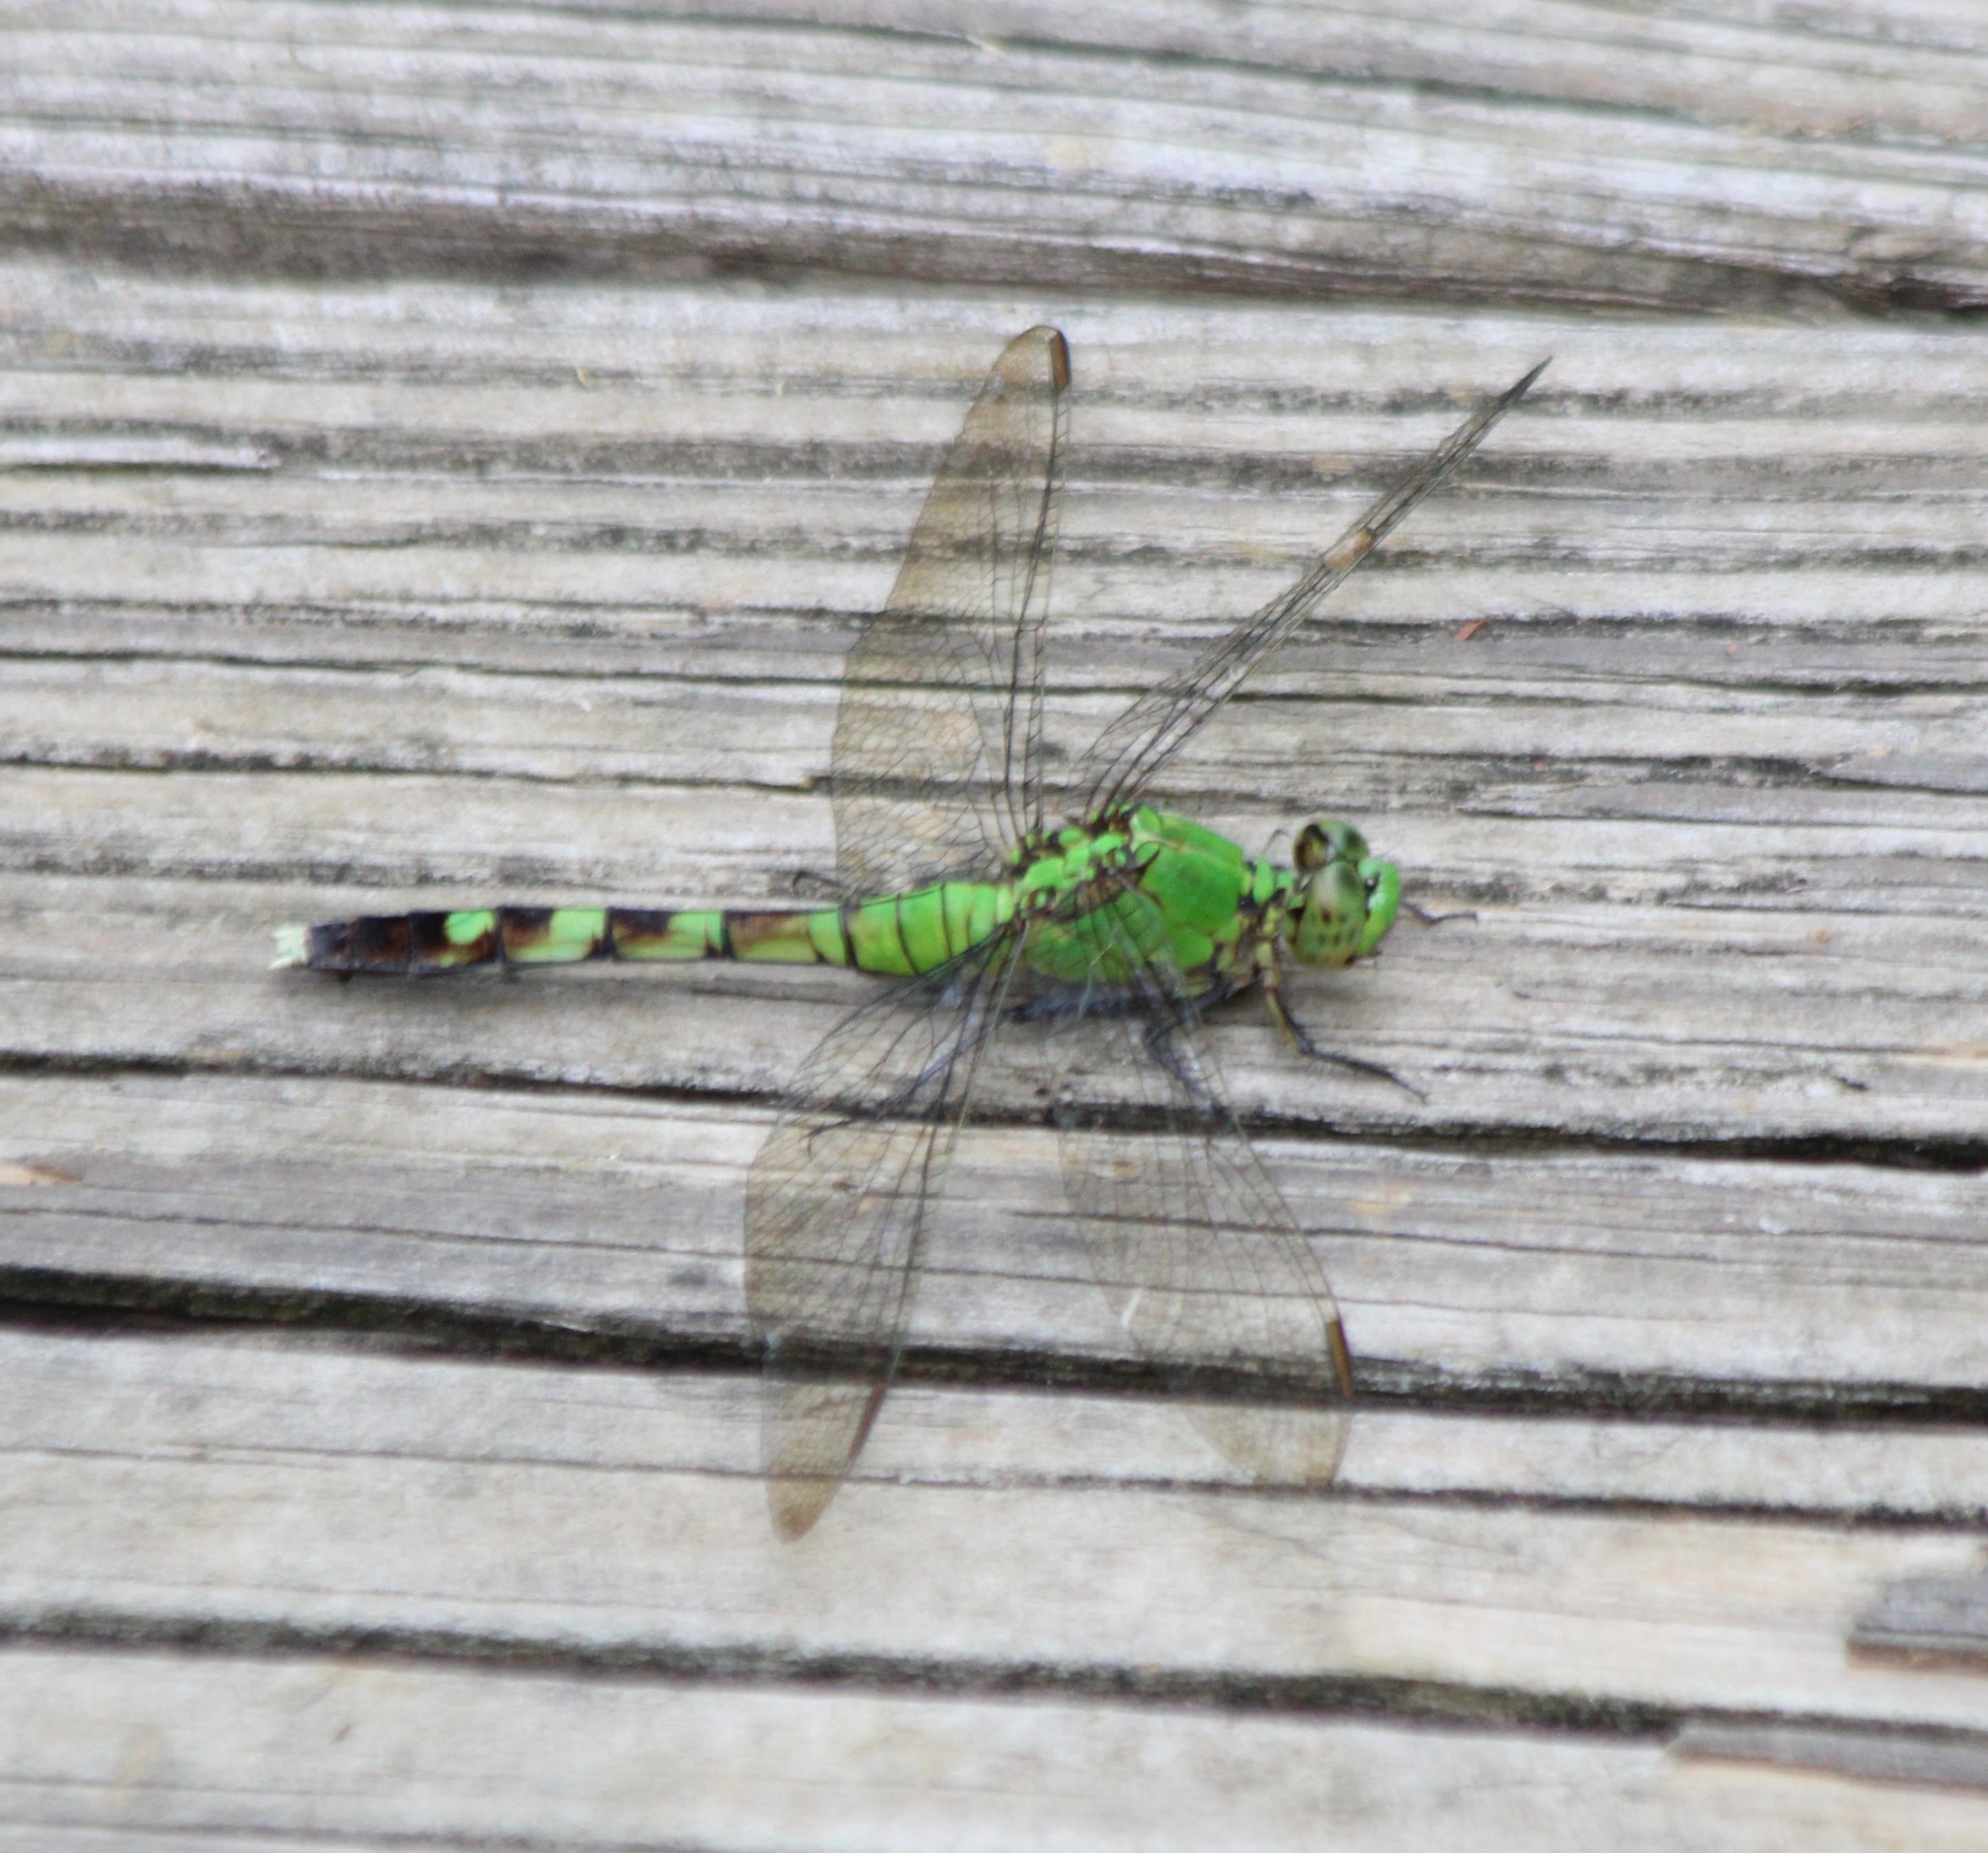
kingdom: Animalia
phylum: Arthropoda
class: Insecta
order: Odonata
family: Libellulidae
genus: Erythemis
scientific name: Erythemis simplicicollis
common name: Eastern pondhawk
